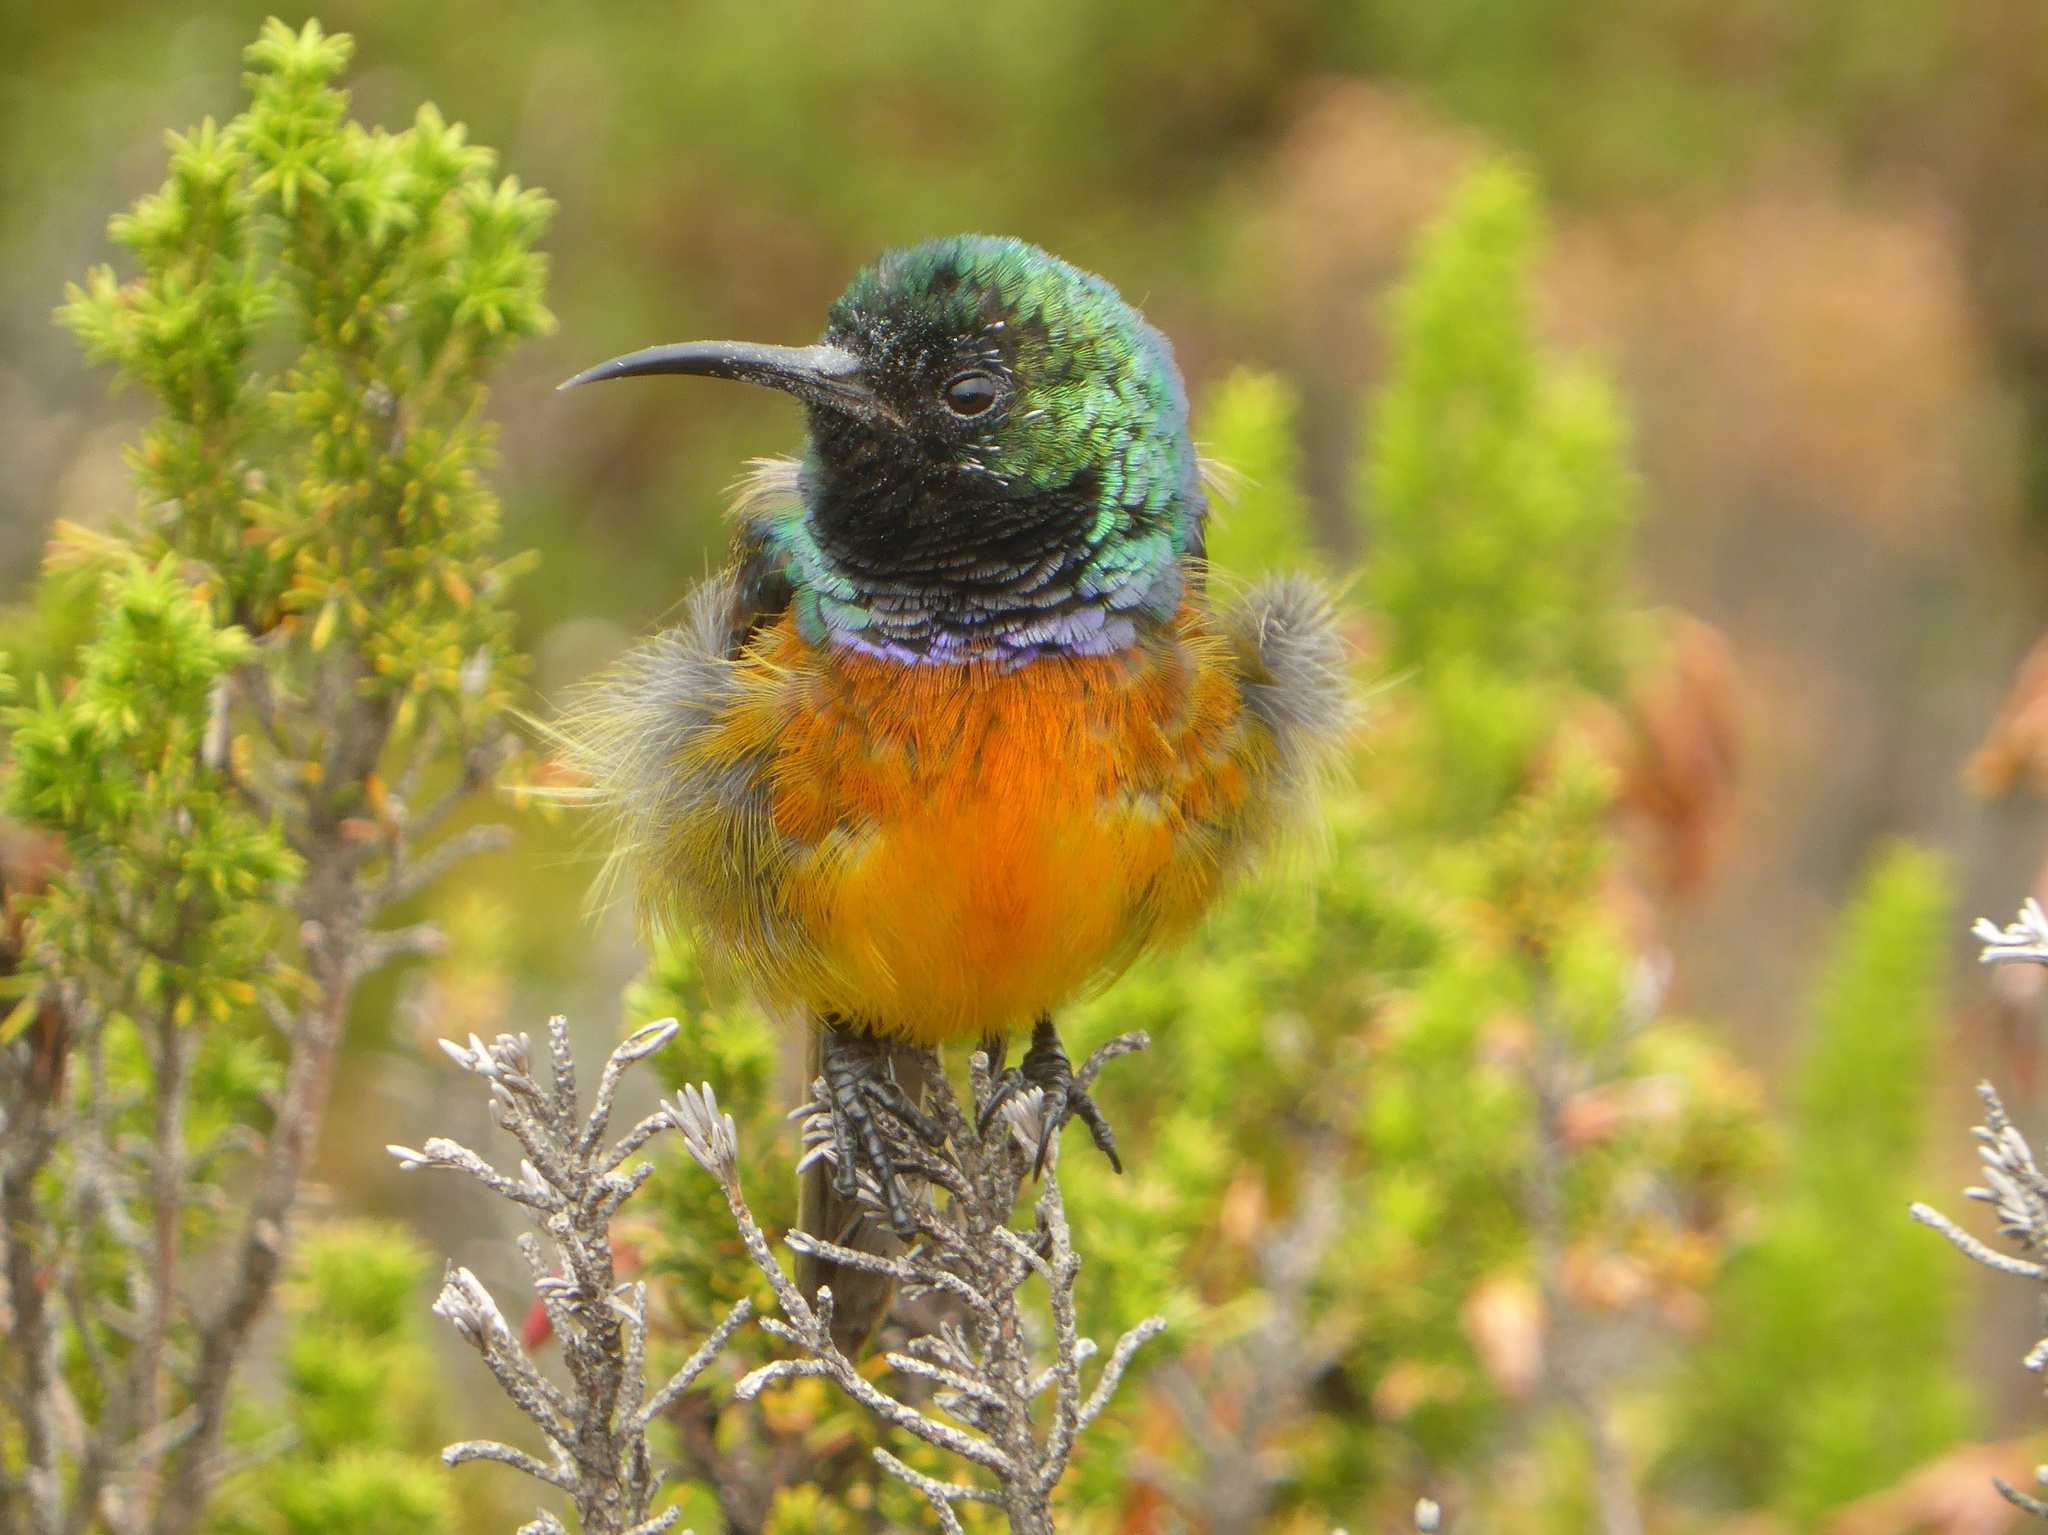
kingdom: Animalia
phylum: Chordata
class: Aves
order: Passeriformes
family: Nectariniidae
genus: Anthobaphes
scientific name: Anthobaphes violacea
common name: Orange-breasted sunbird
